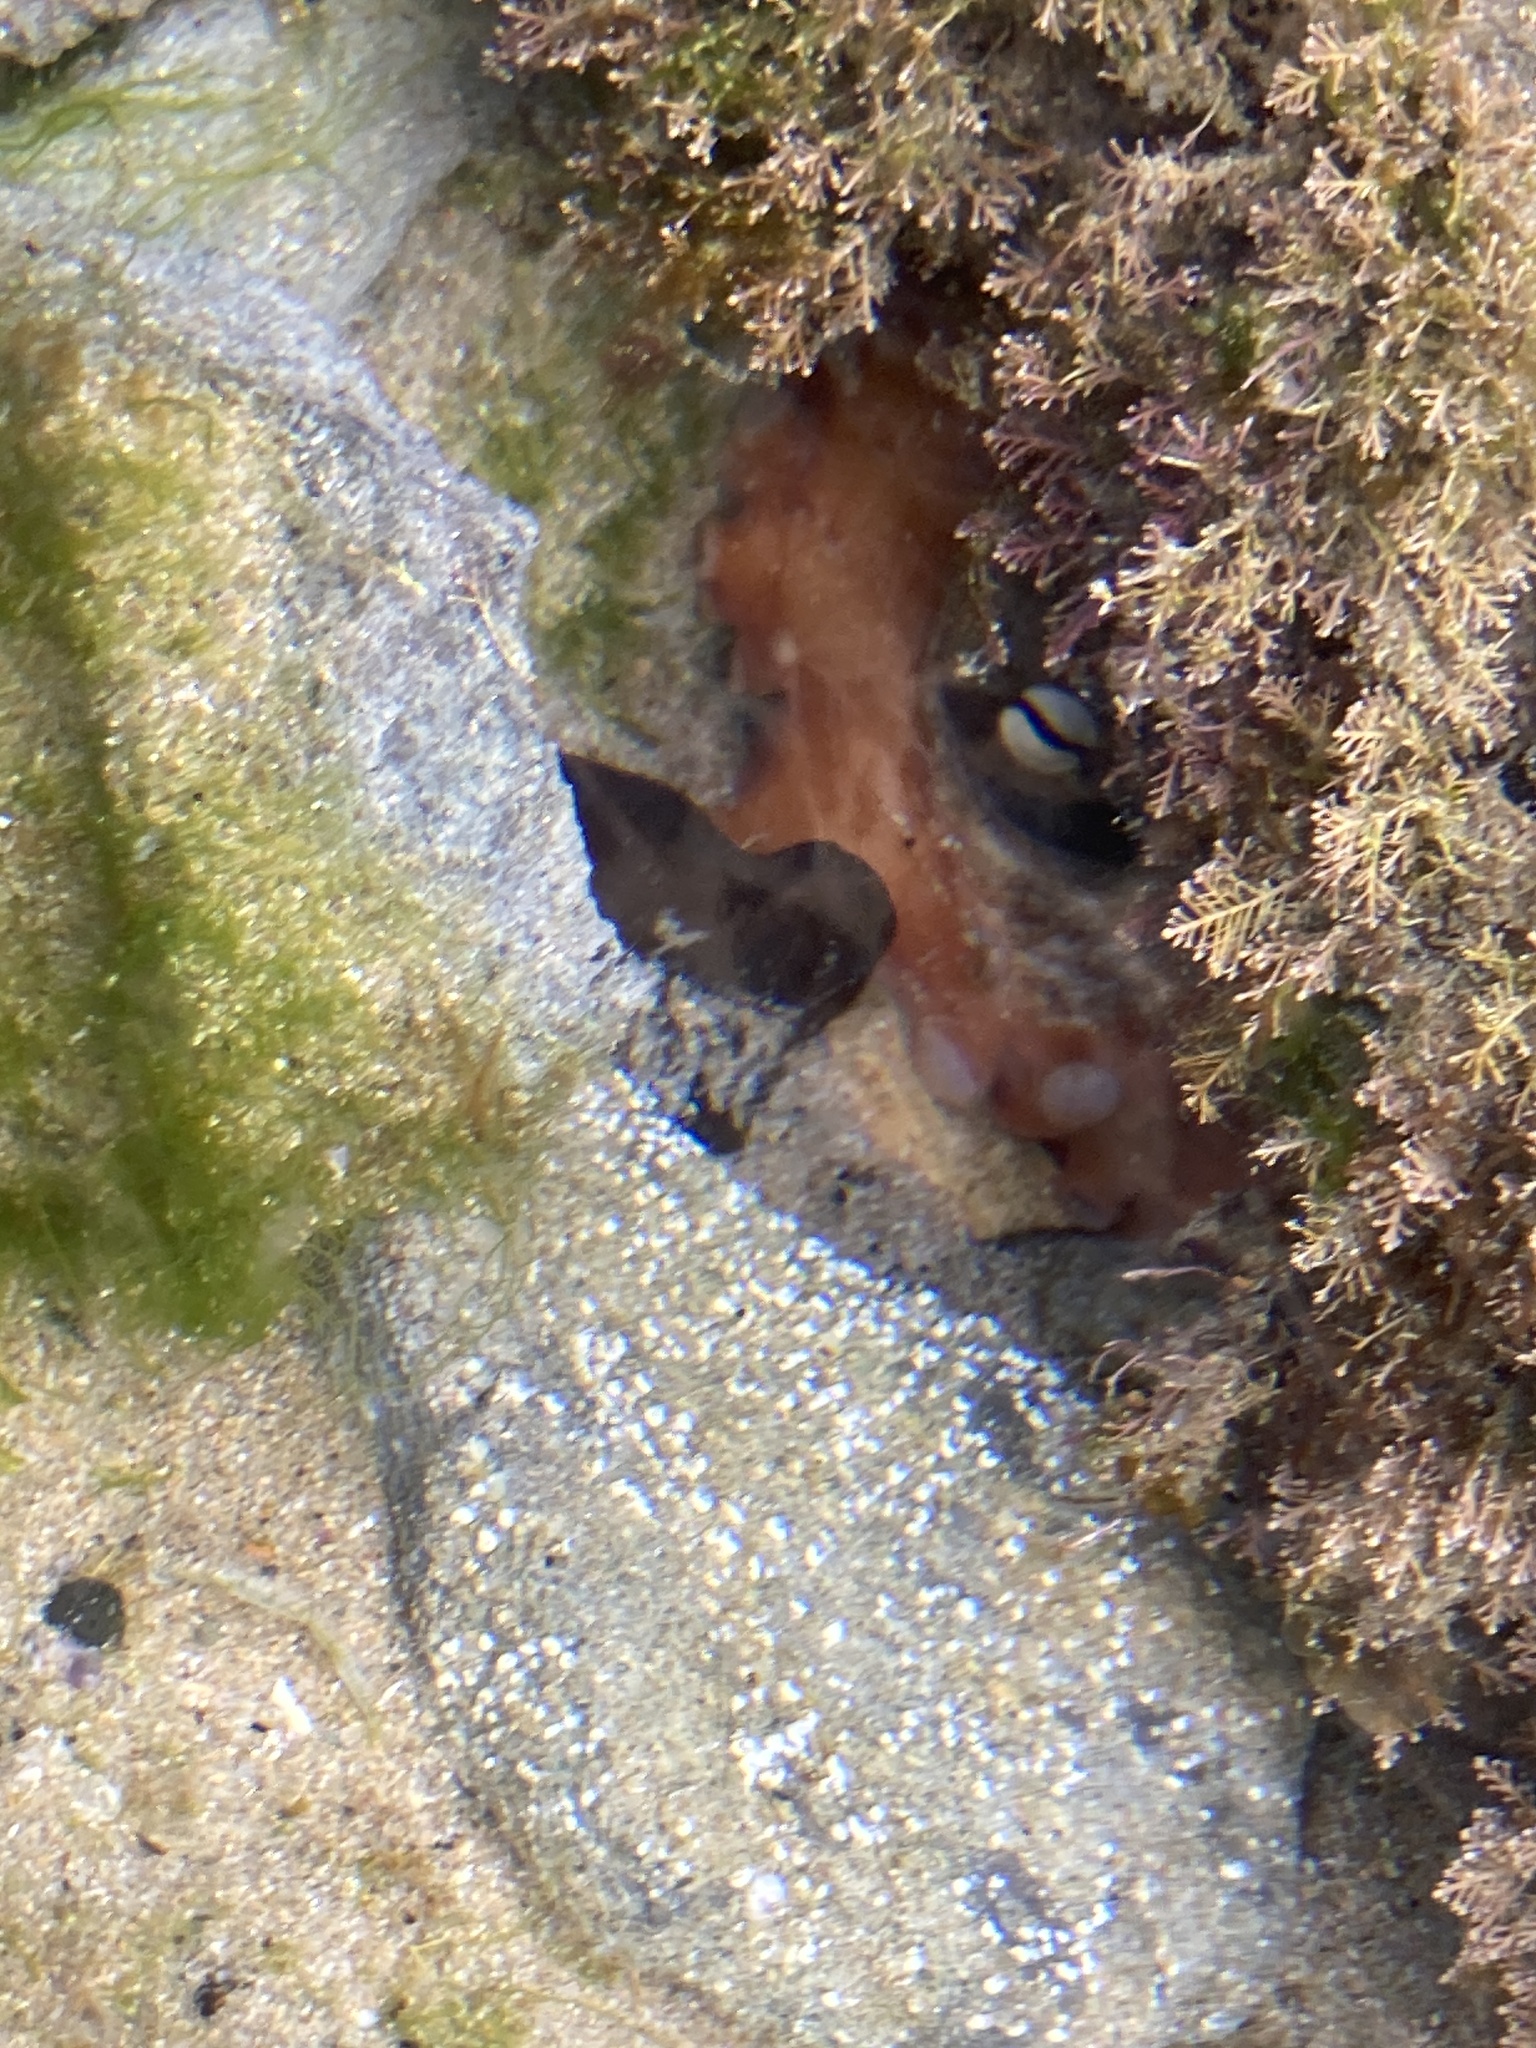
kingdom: Animalia
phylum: Mollusca
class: Cephalopoda
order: Octopoda
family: Octopodidae
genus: Octopus
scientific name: Octopus tetricus
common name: Sydney octopus
